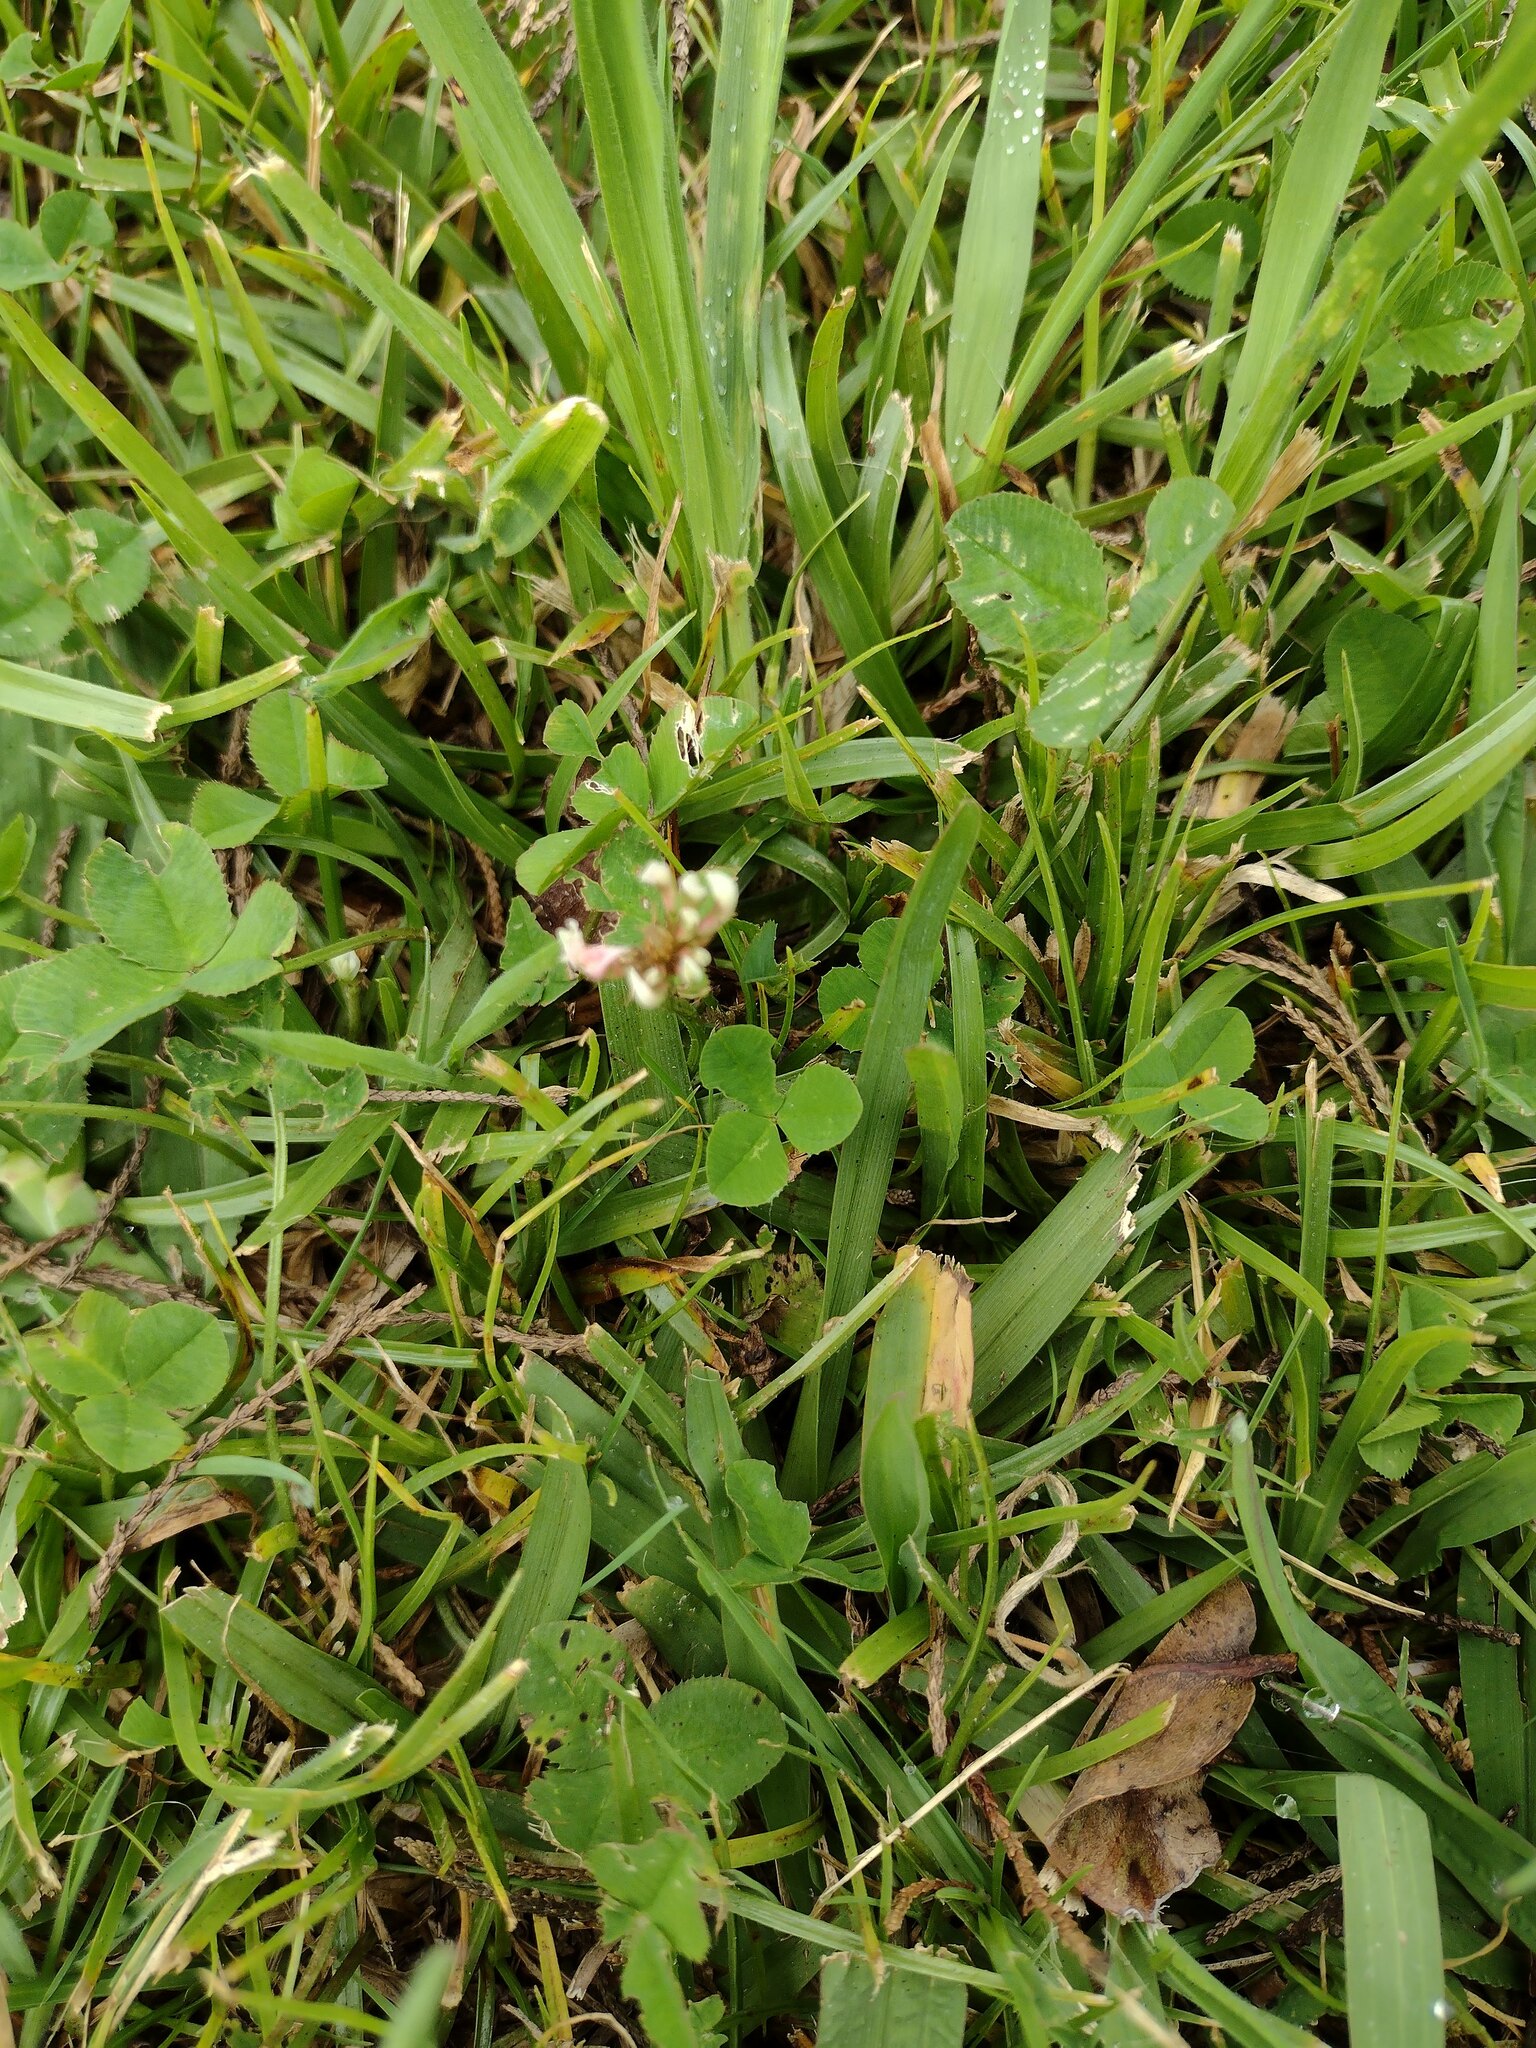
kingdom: Plantae
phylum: Tracheophyta
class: Magnoliopsida
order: Fabales
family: Fabaceae
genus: Trifolium
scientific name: Trifolium repens
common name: White clover
